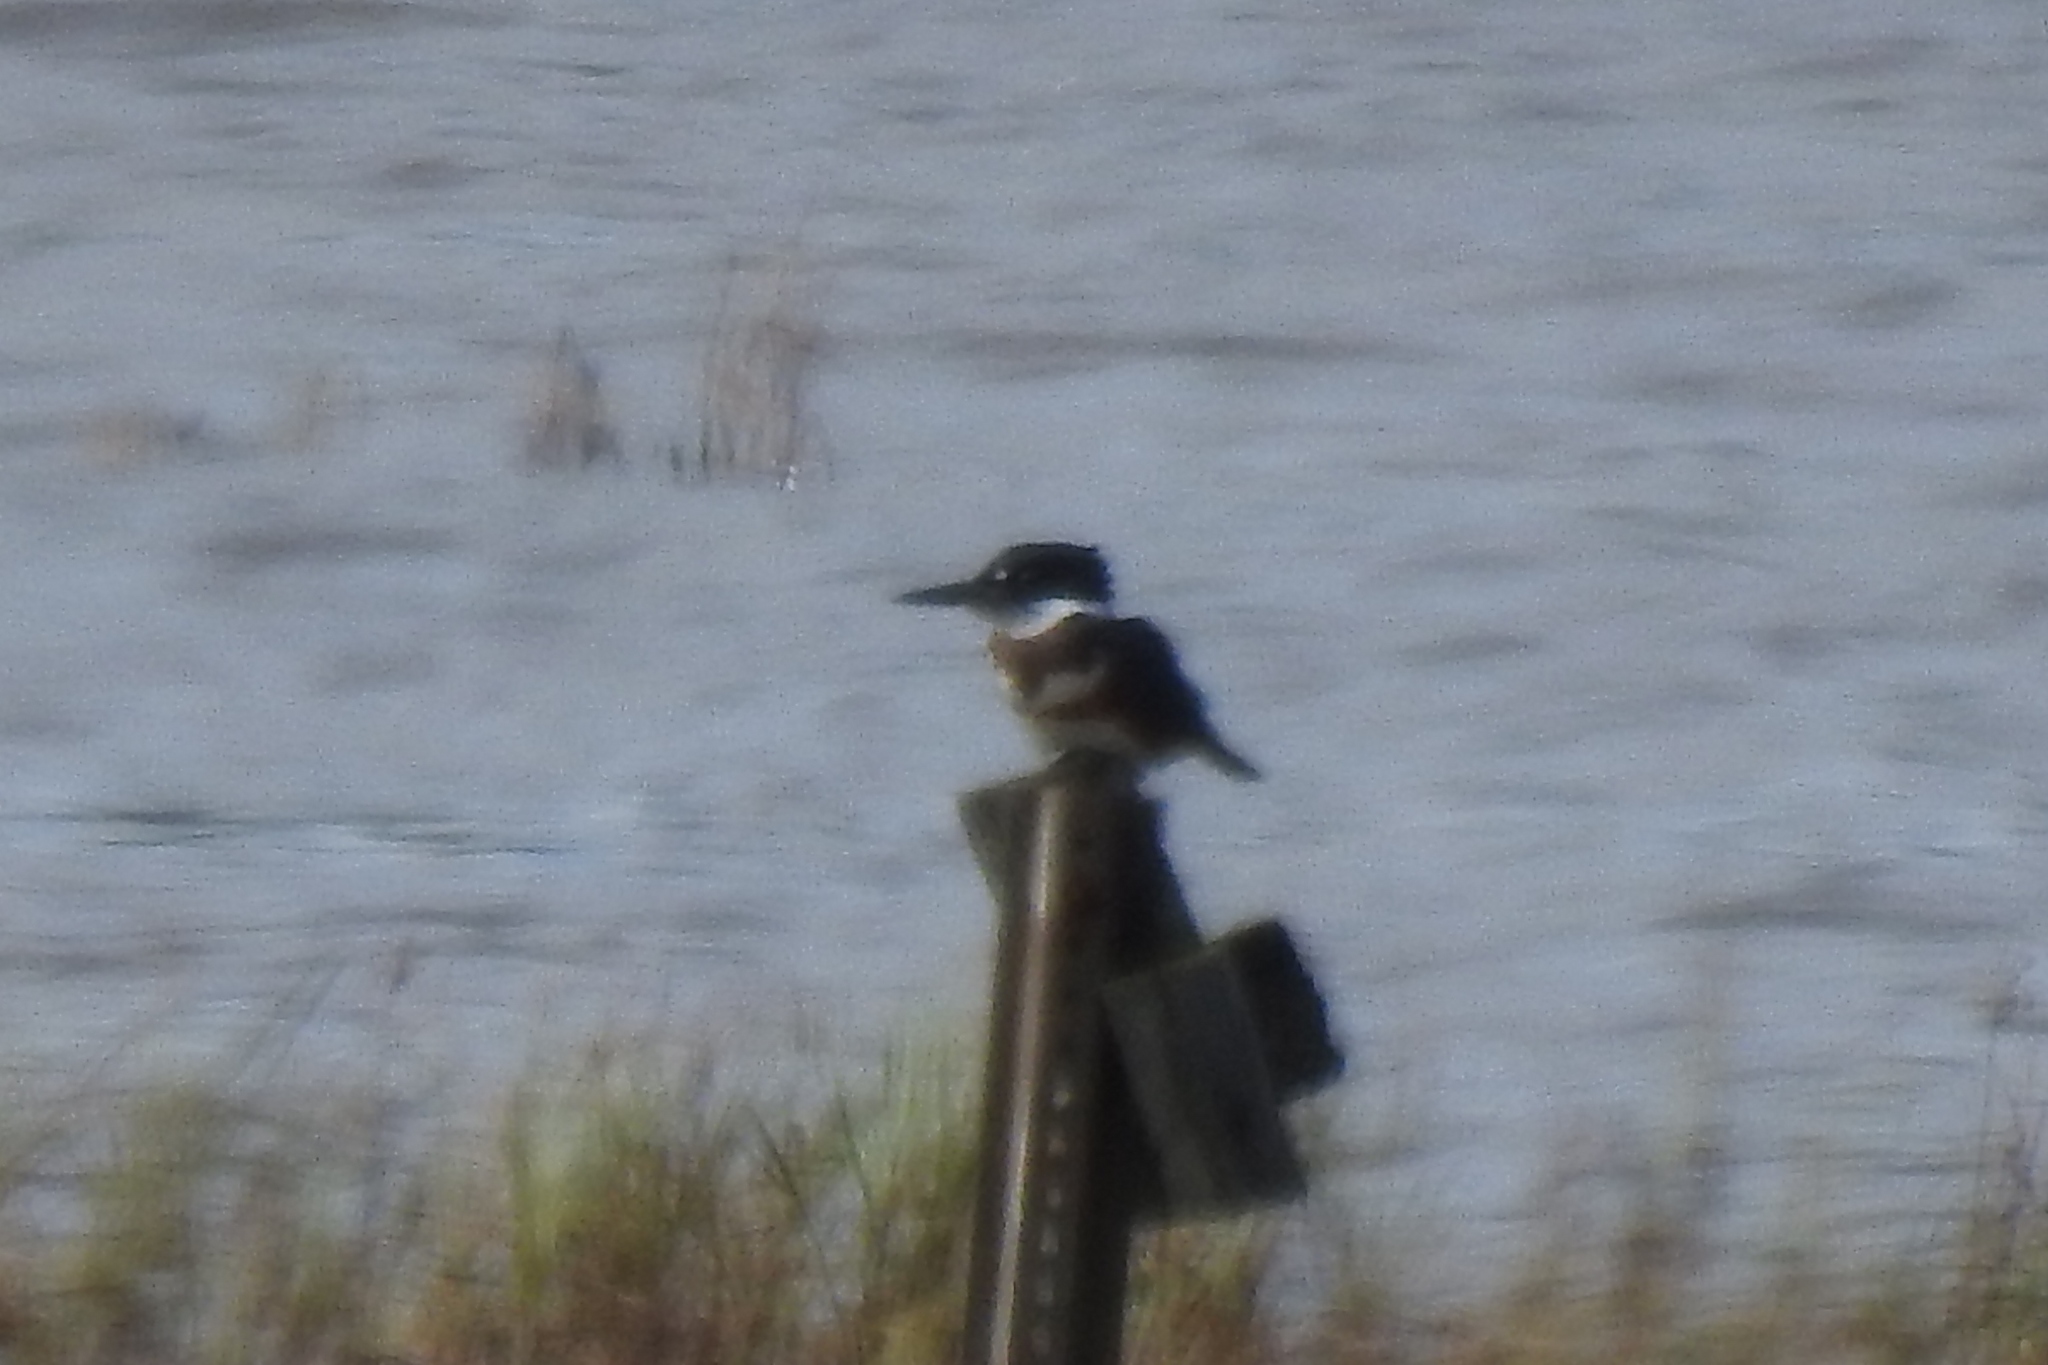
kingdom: Animalia
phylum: Chordata
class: Aves
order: Coraciiformes
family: Alcedinidae
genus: Megaceryle
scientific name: Megaceryle alcyon
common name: Belted kingfisher
